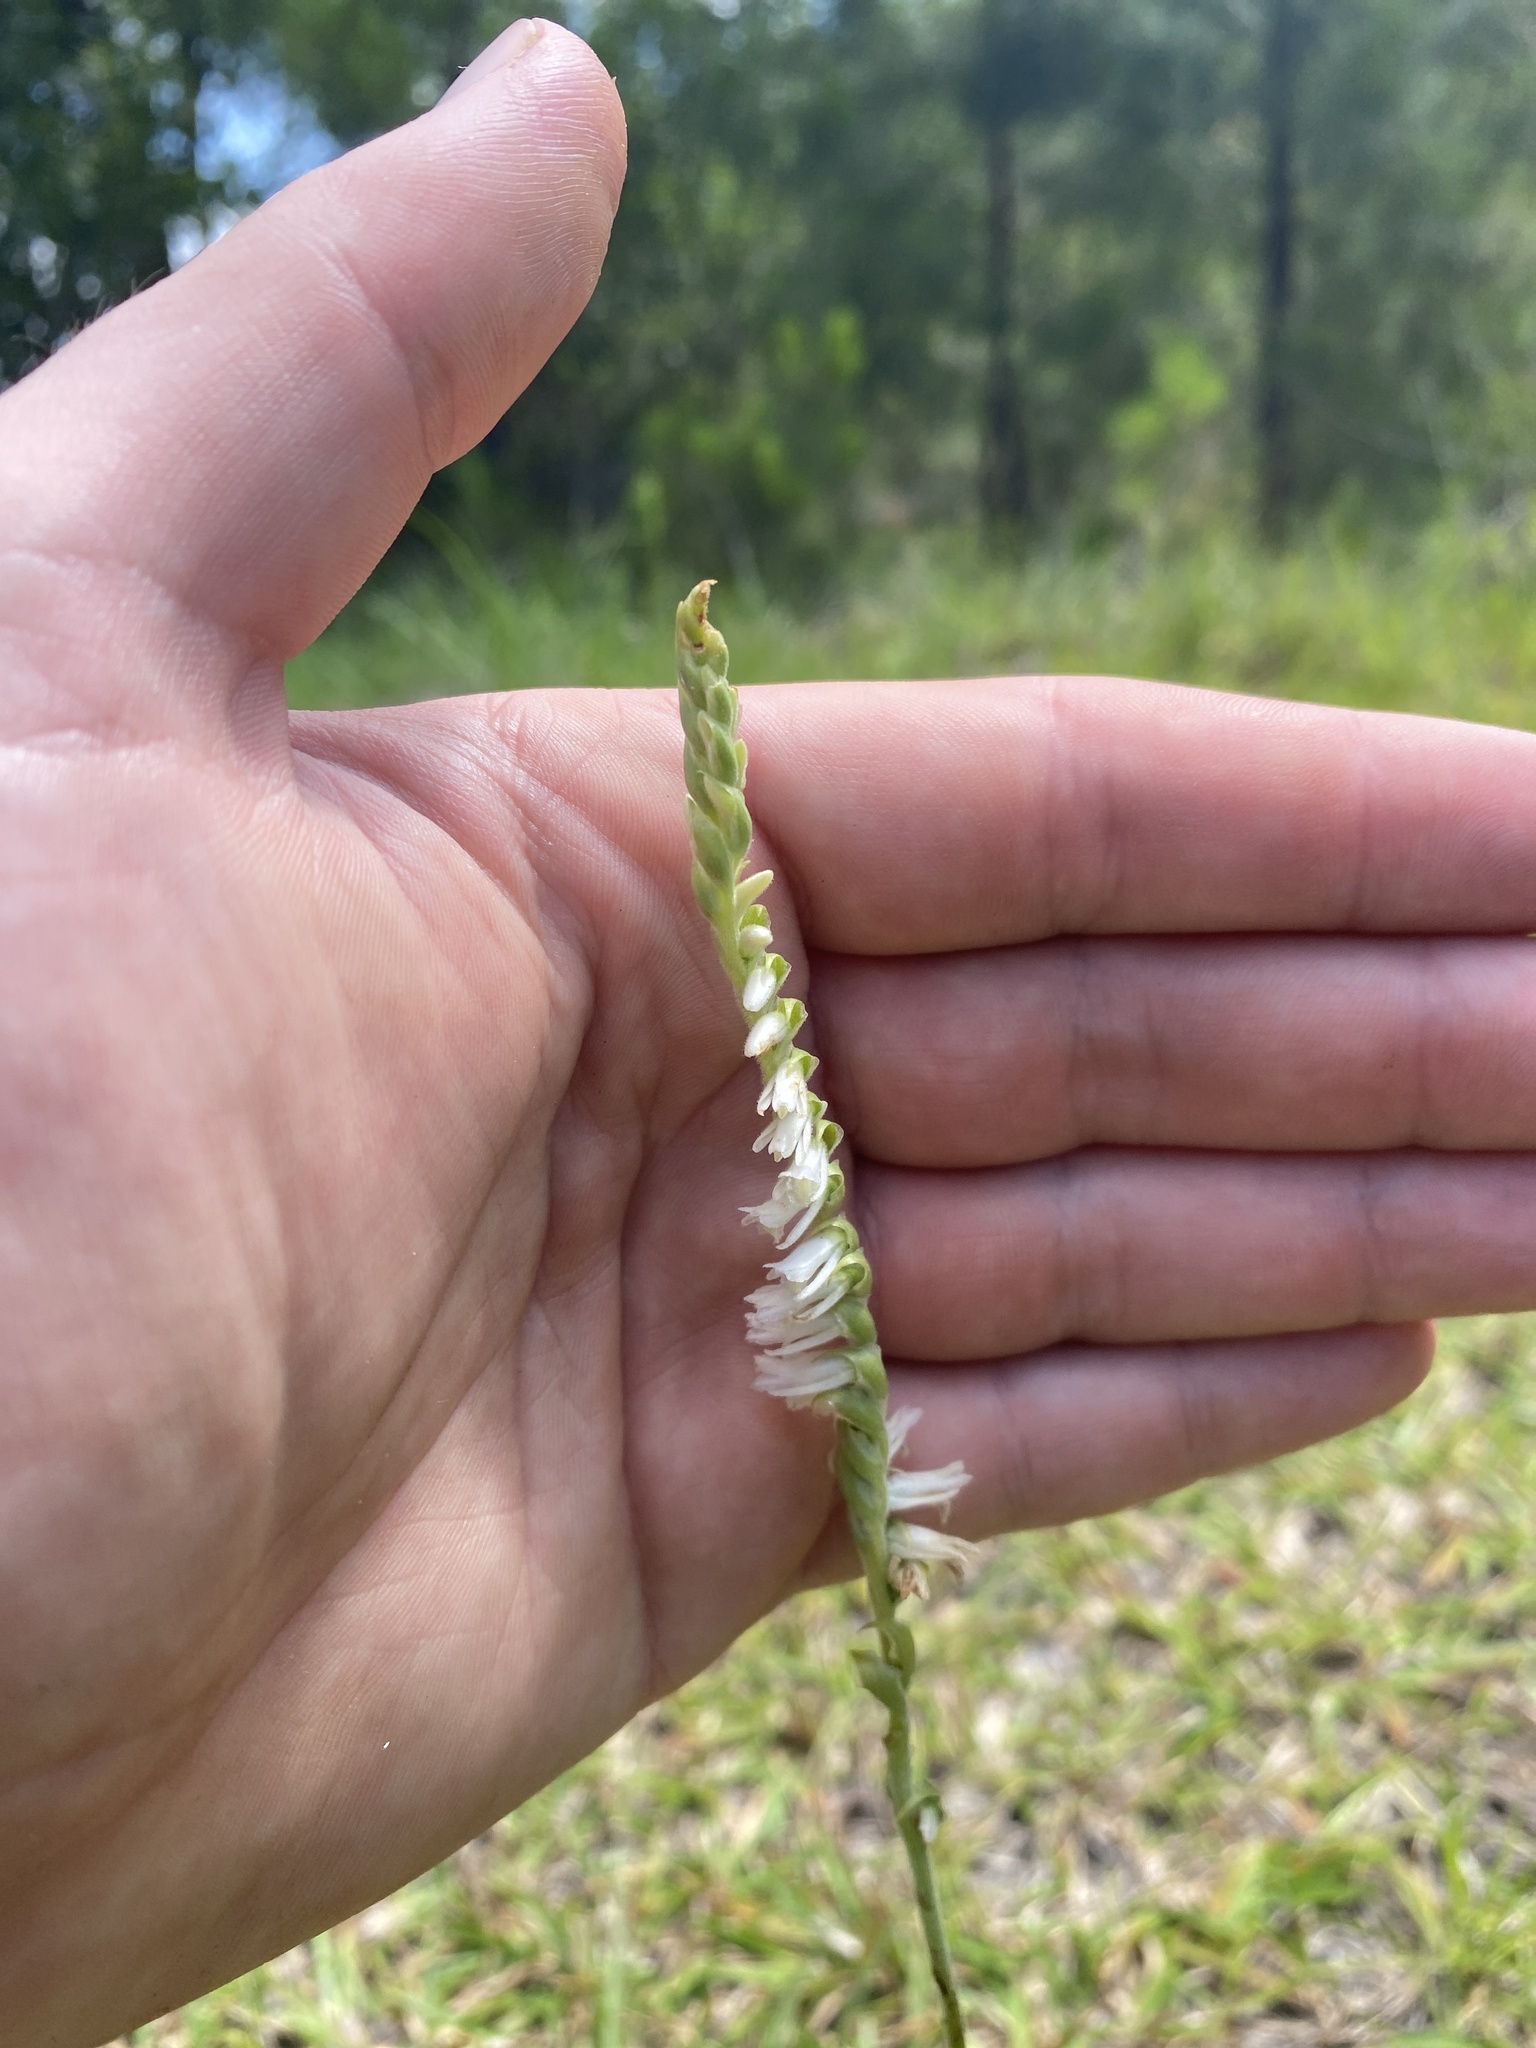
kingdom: Plantae
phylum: Tracheophyta
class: Liliopsida
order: Asparagales
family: Orchidaceae
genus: Spiranthes
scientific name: Spiranthes vernalis
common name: Spring ladies'-tresses
